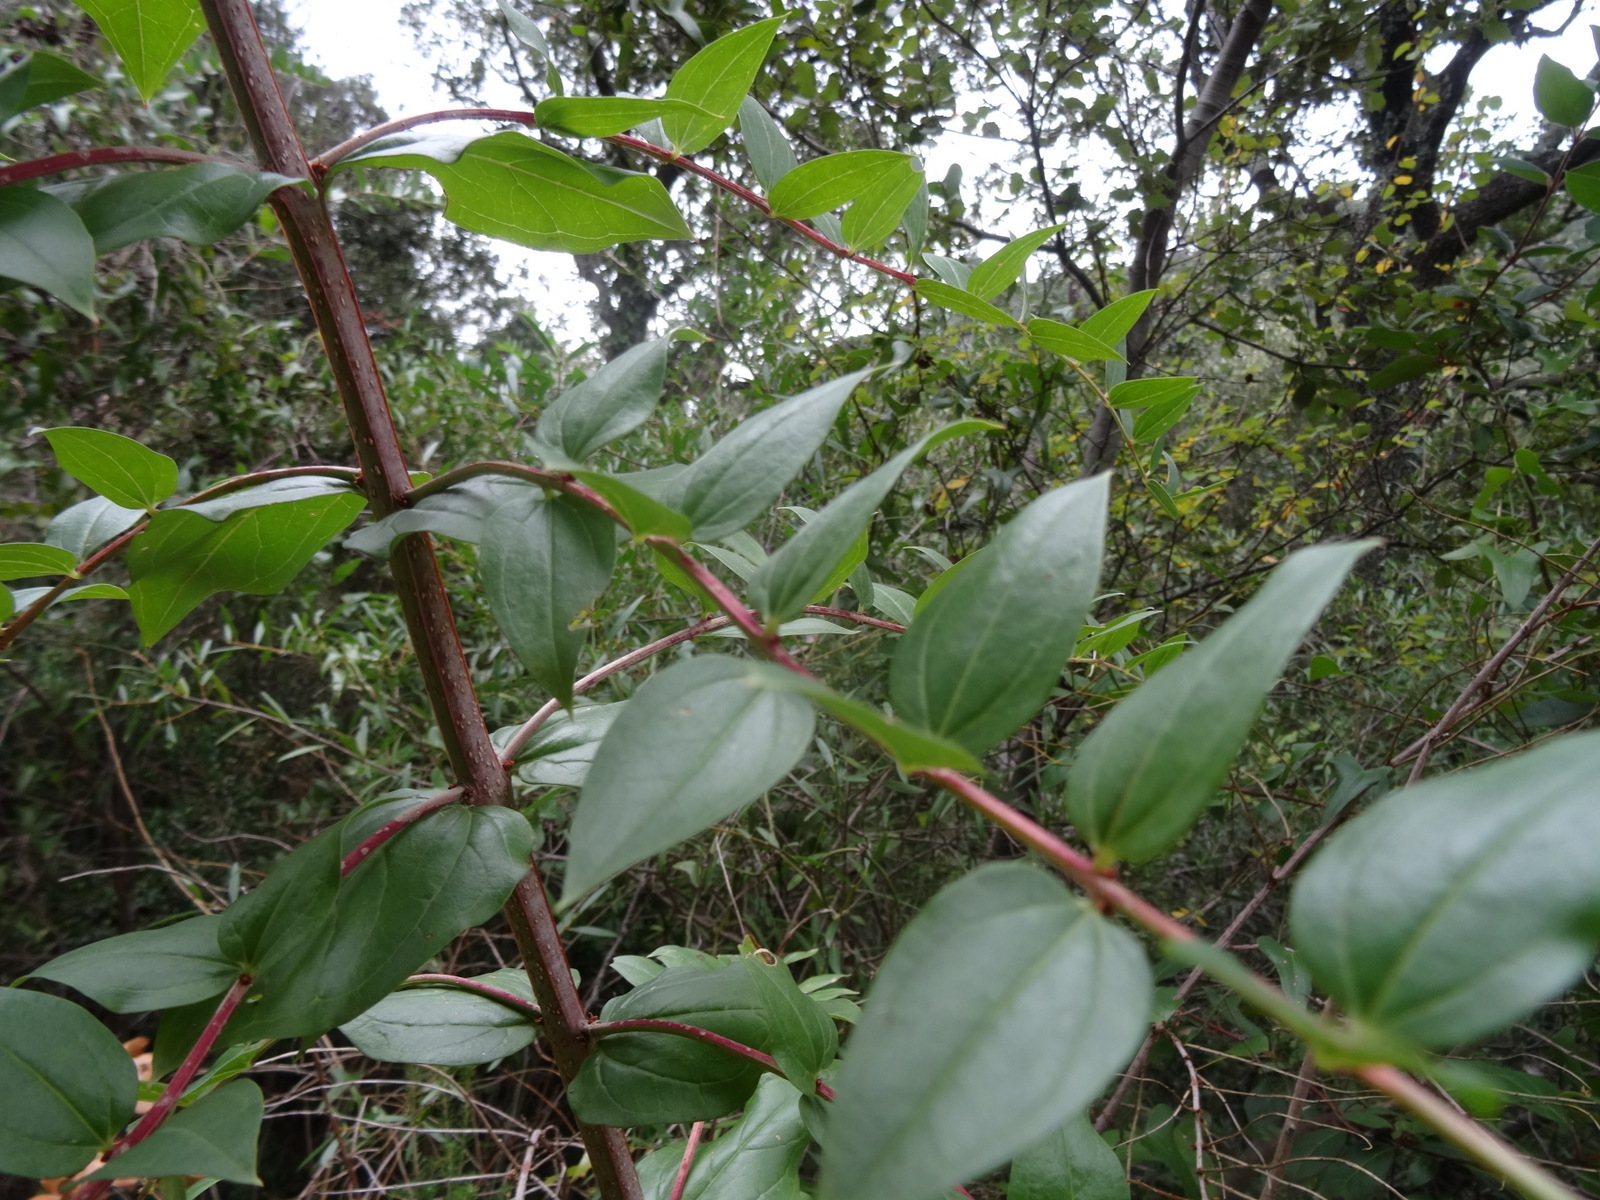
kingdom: Plantae
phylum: Tracheophyta
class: Magnoliopsida
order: Cucurbitales
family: Coriariaceae
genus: Coriaria
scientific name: Coriaria myrtifolia
